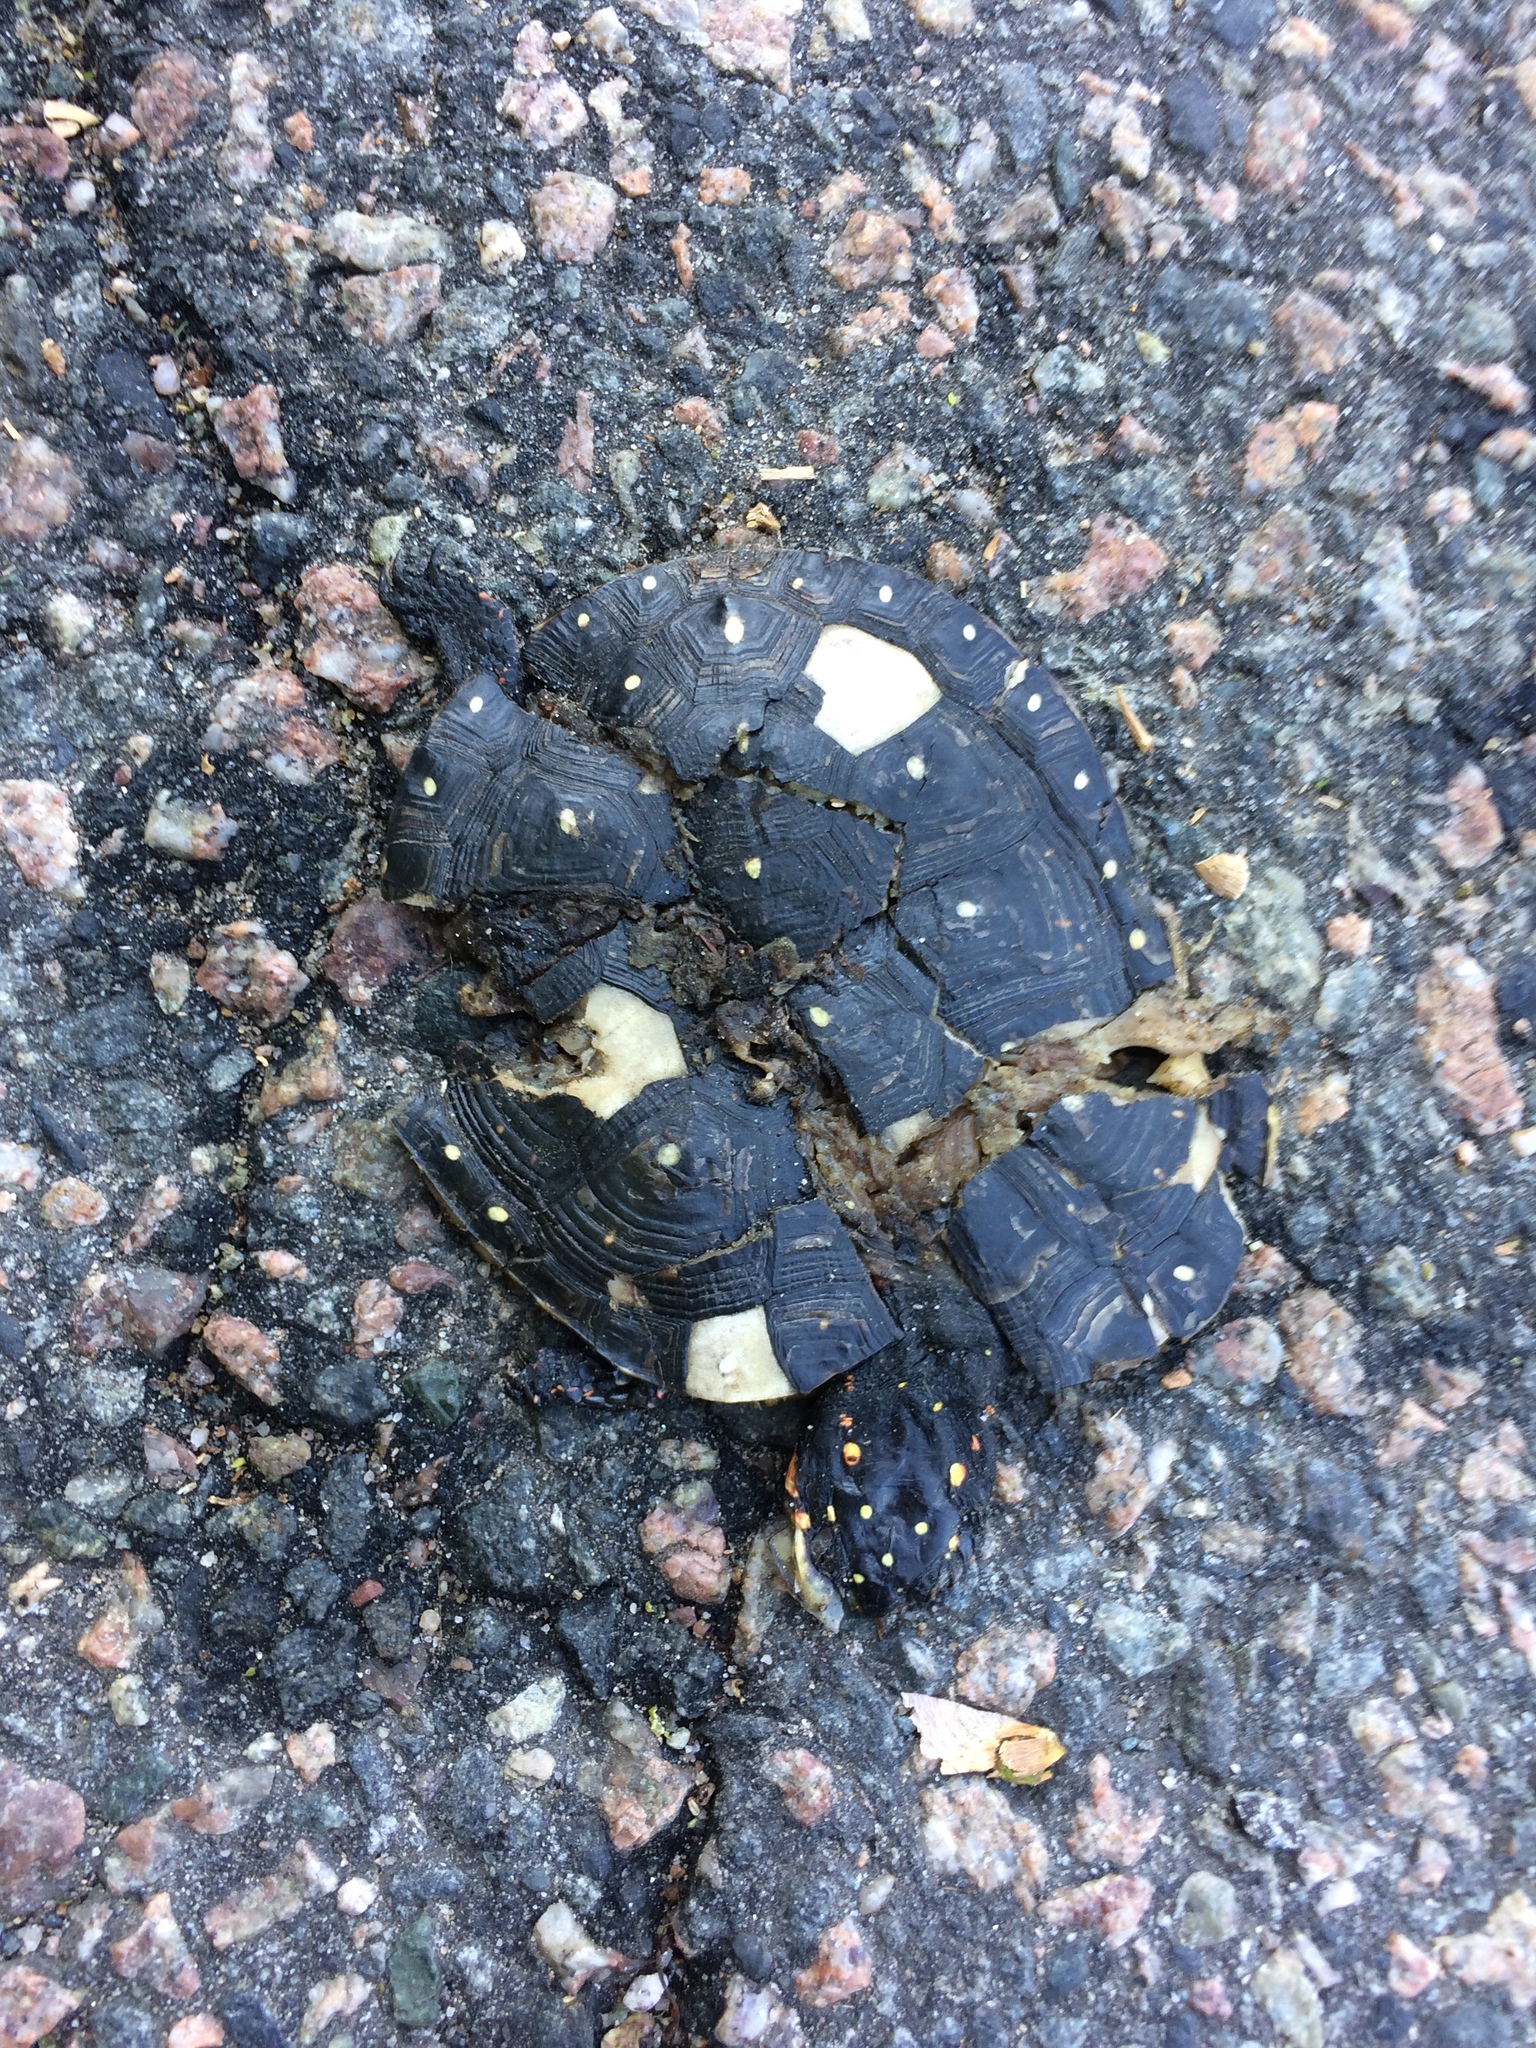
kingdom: Animalia
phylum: Chordata
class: Testudines
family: Emydidae
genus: Clemmys
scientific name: Clemmys guttata
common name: Spotted turtle
